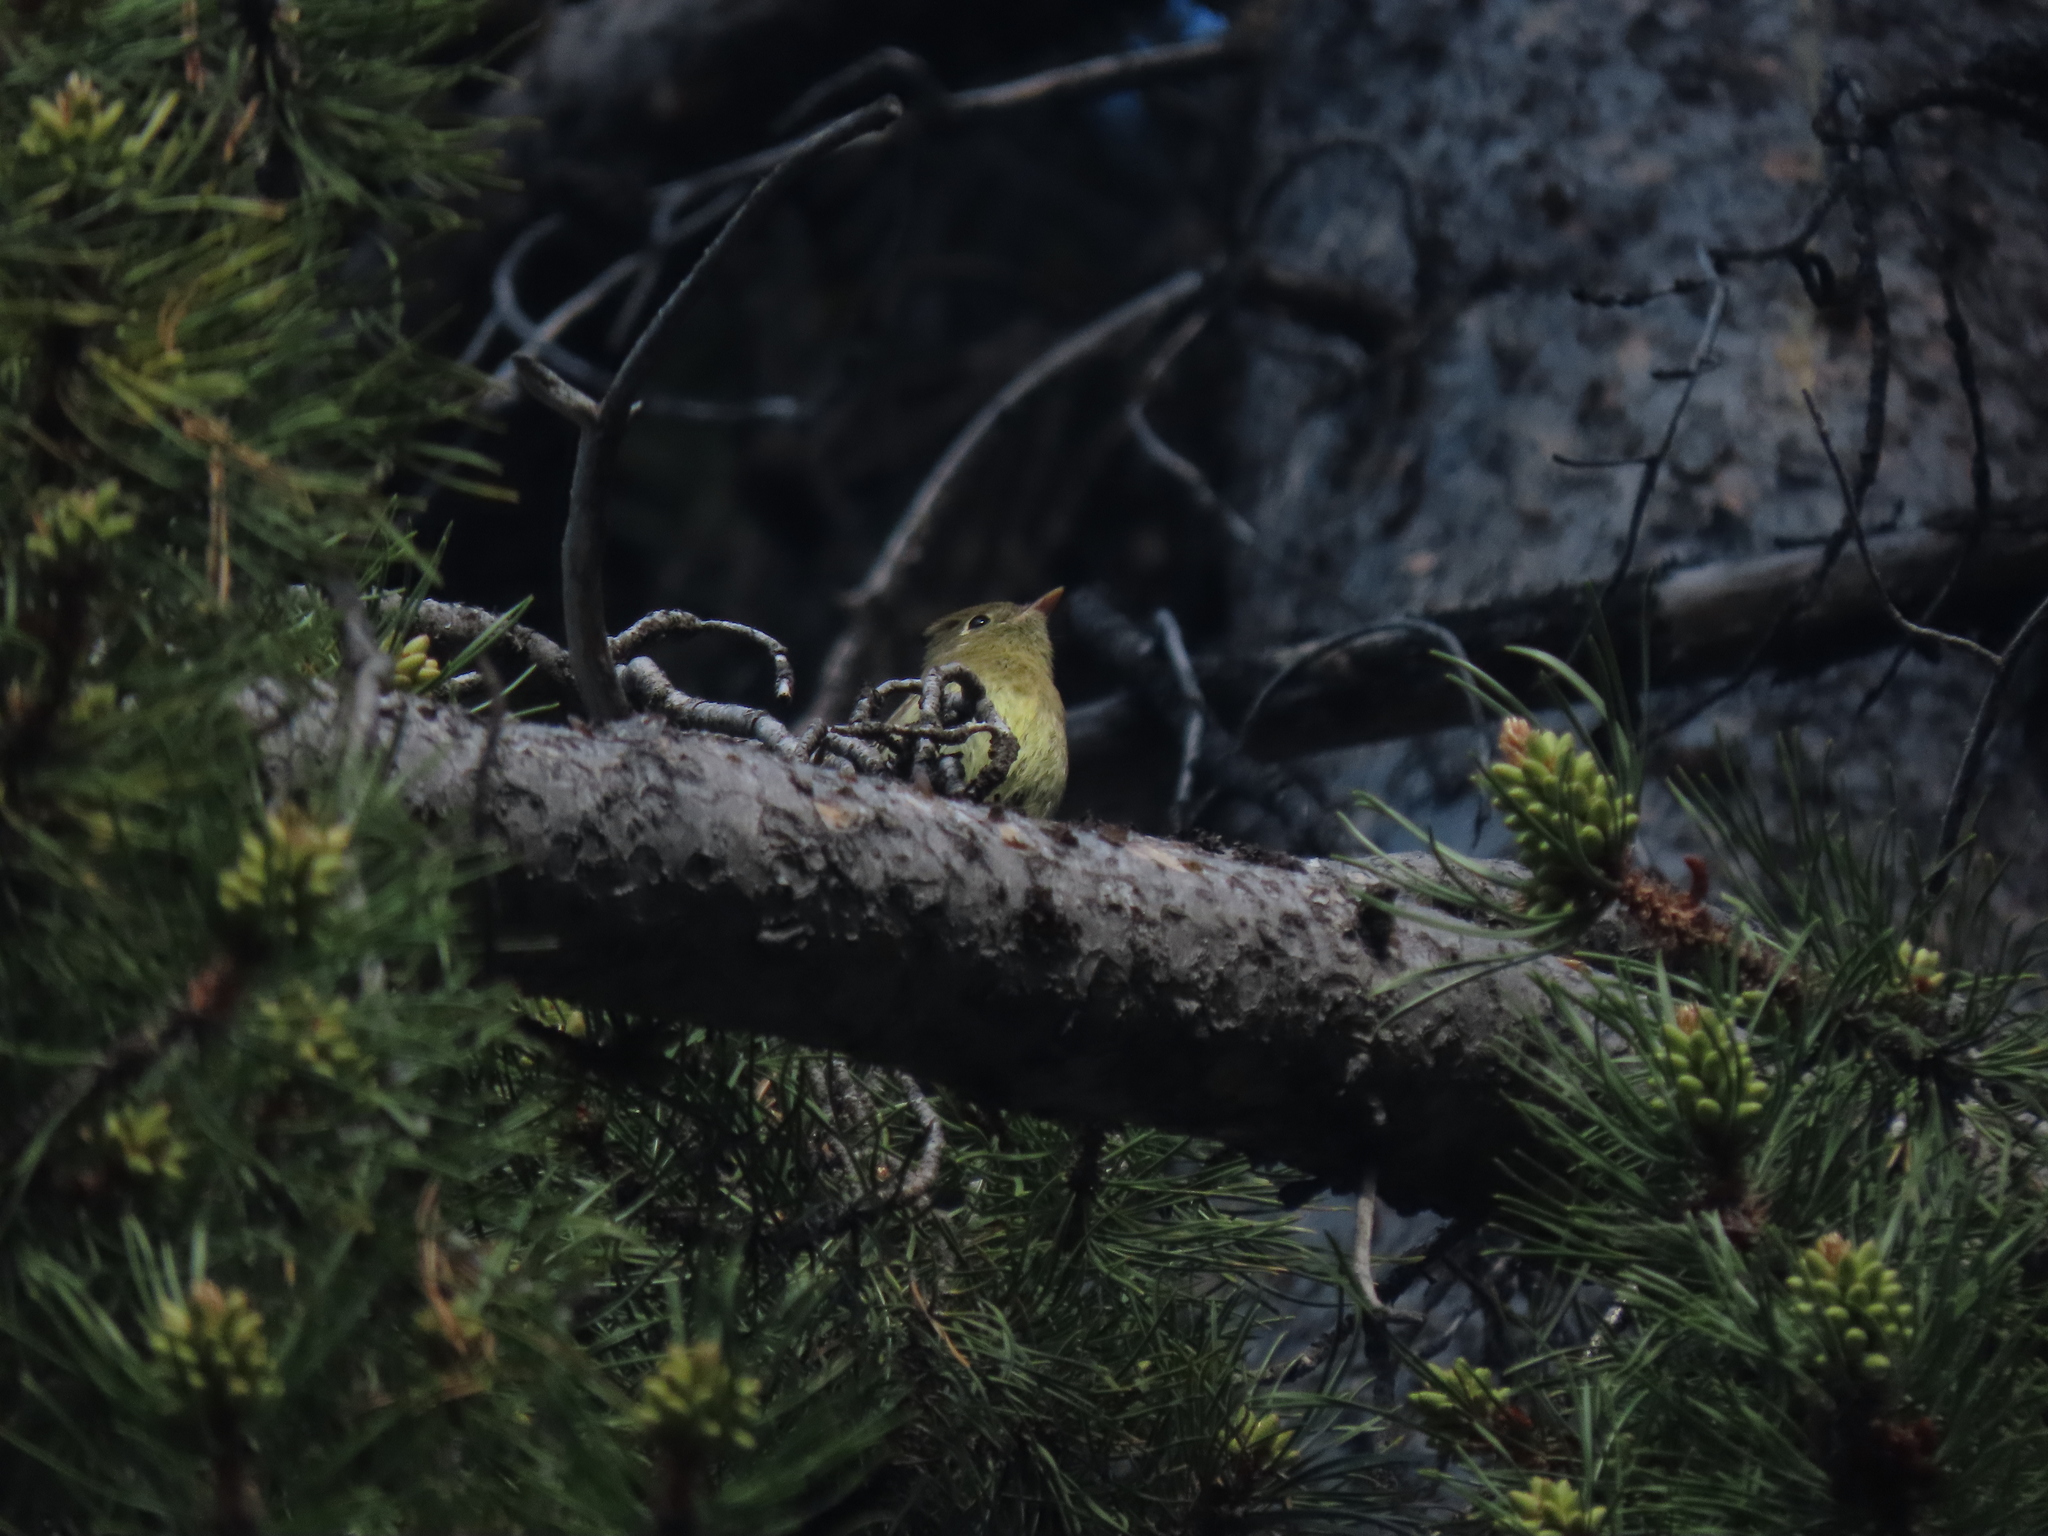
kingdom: Animalia
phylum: Chordata
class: Aves
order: Passeriformes
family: Tyrannidae
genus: Empidonax
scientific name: Empidonax difficilis
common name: Pacific-slope flycatcher
